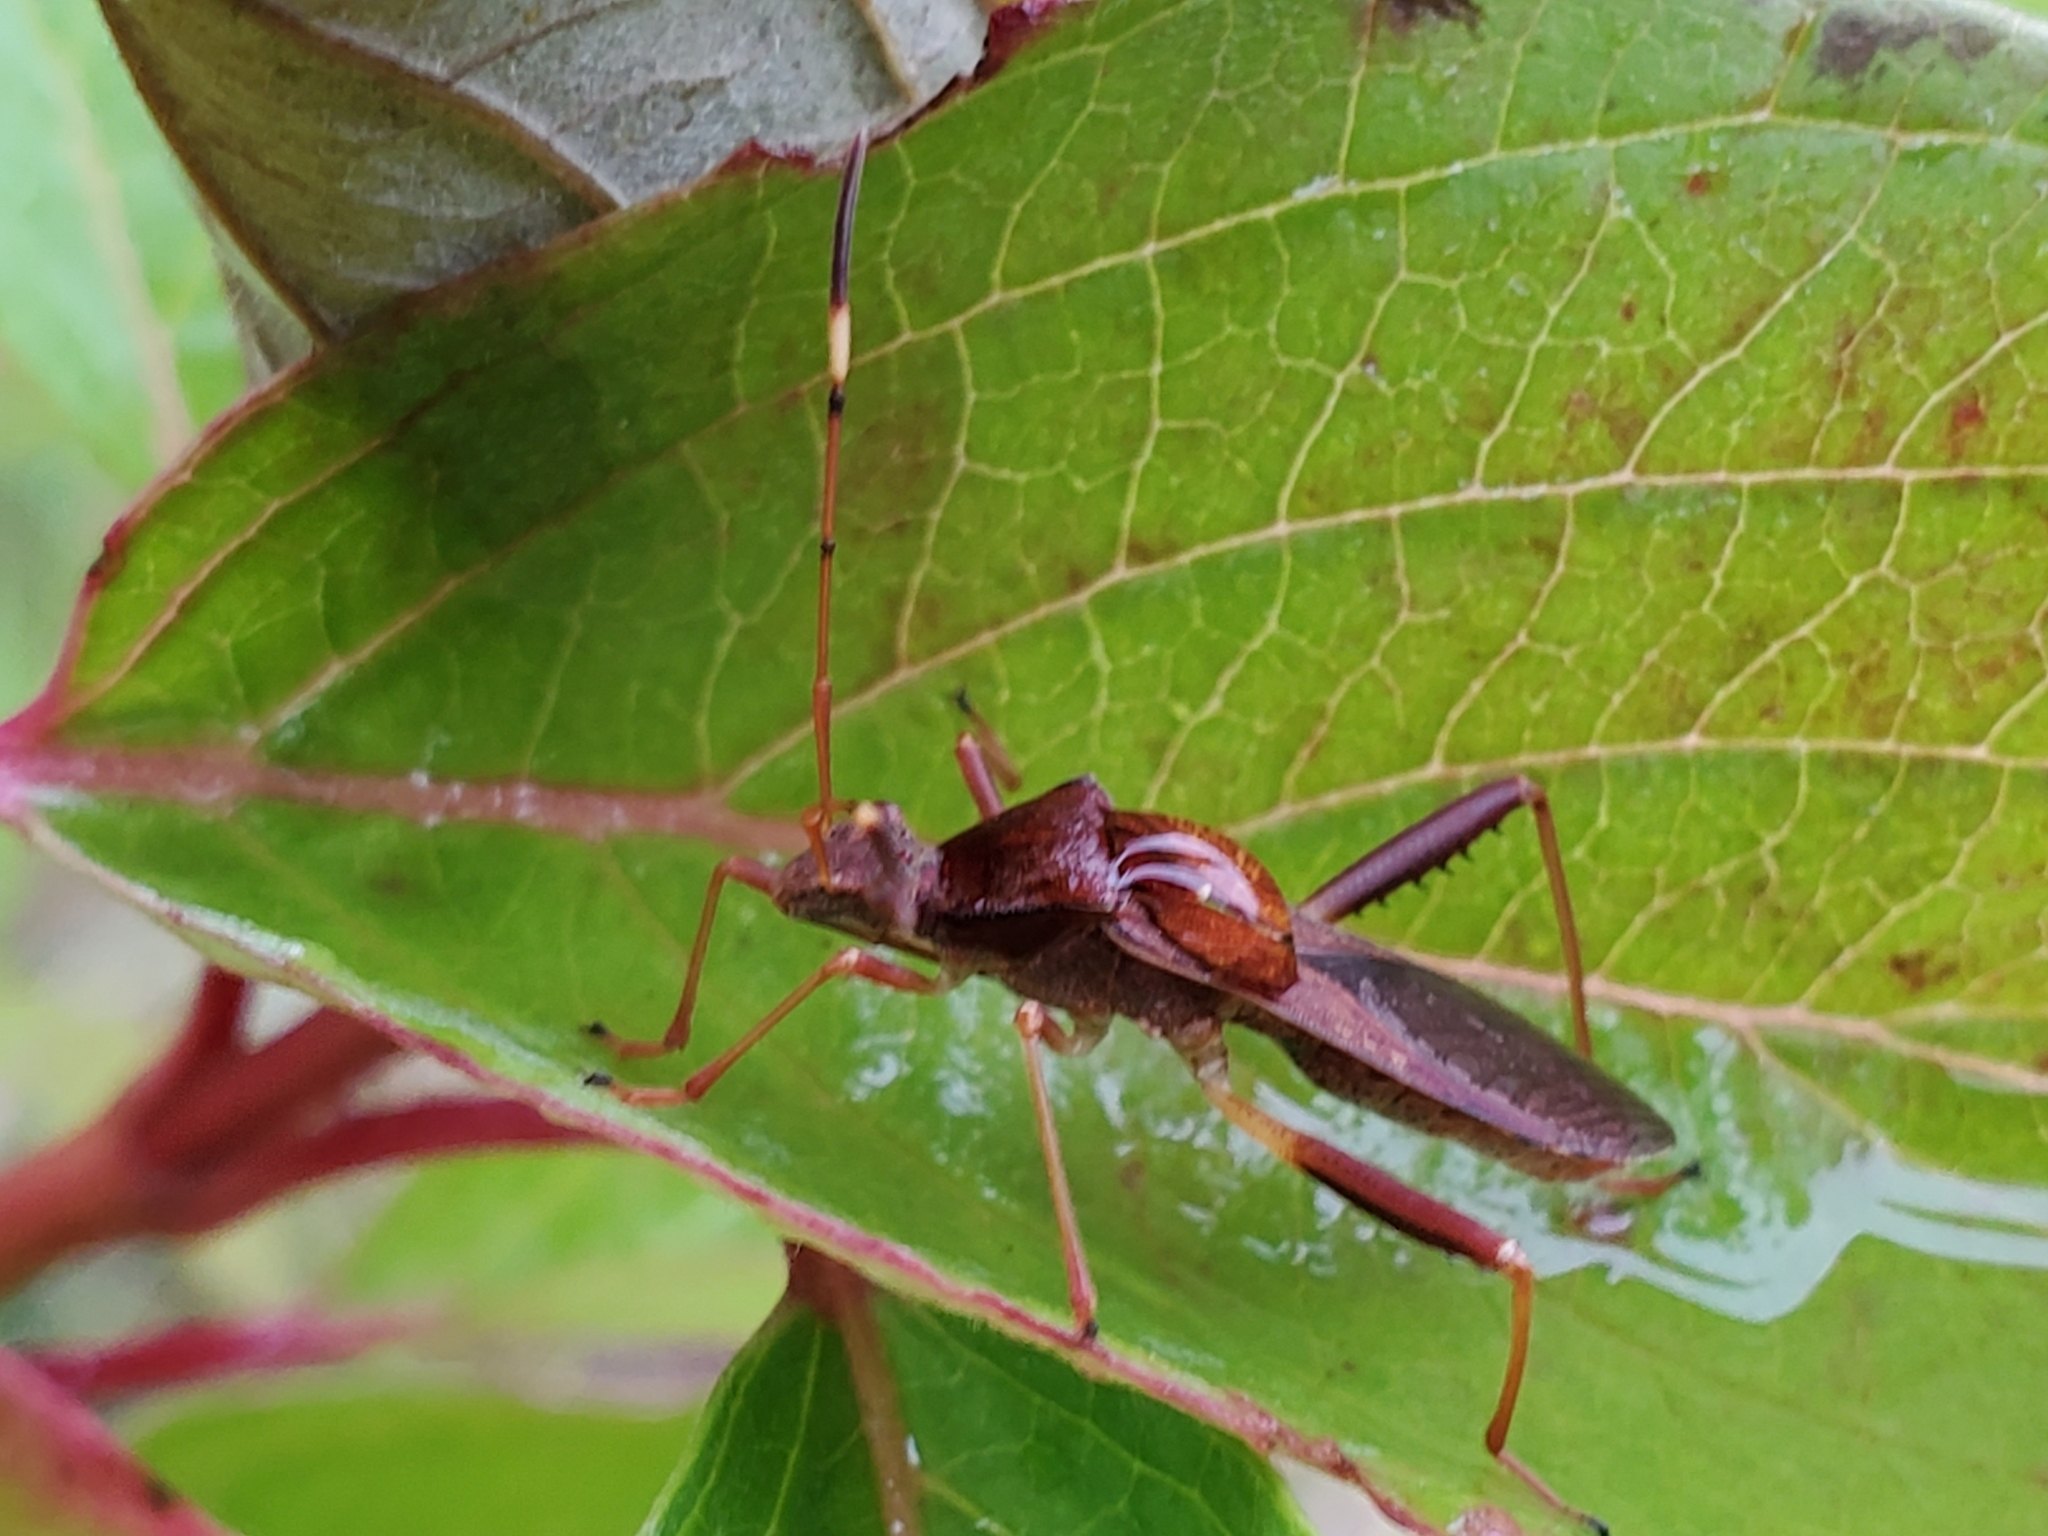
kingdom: Animalia
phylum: Arthropoda
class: Insecta
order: Hemiptera
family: Alydidae
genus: Megalotomus
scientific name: Megalotomus quinquespinosus
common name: Lupine bug
